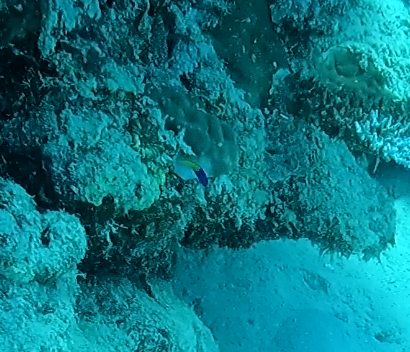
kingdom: Animalia
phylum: Chordata
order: Perciformes
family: Pseudochromidae
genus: Pictichromis
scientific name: Pictichromis coralensis
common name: Bicoloured dottyback
